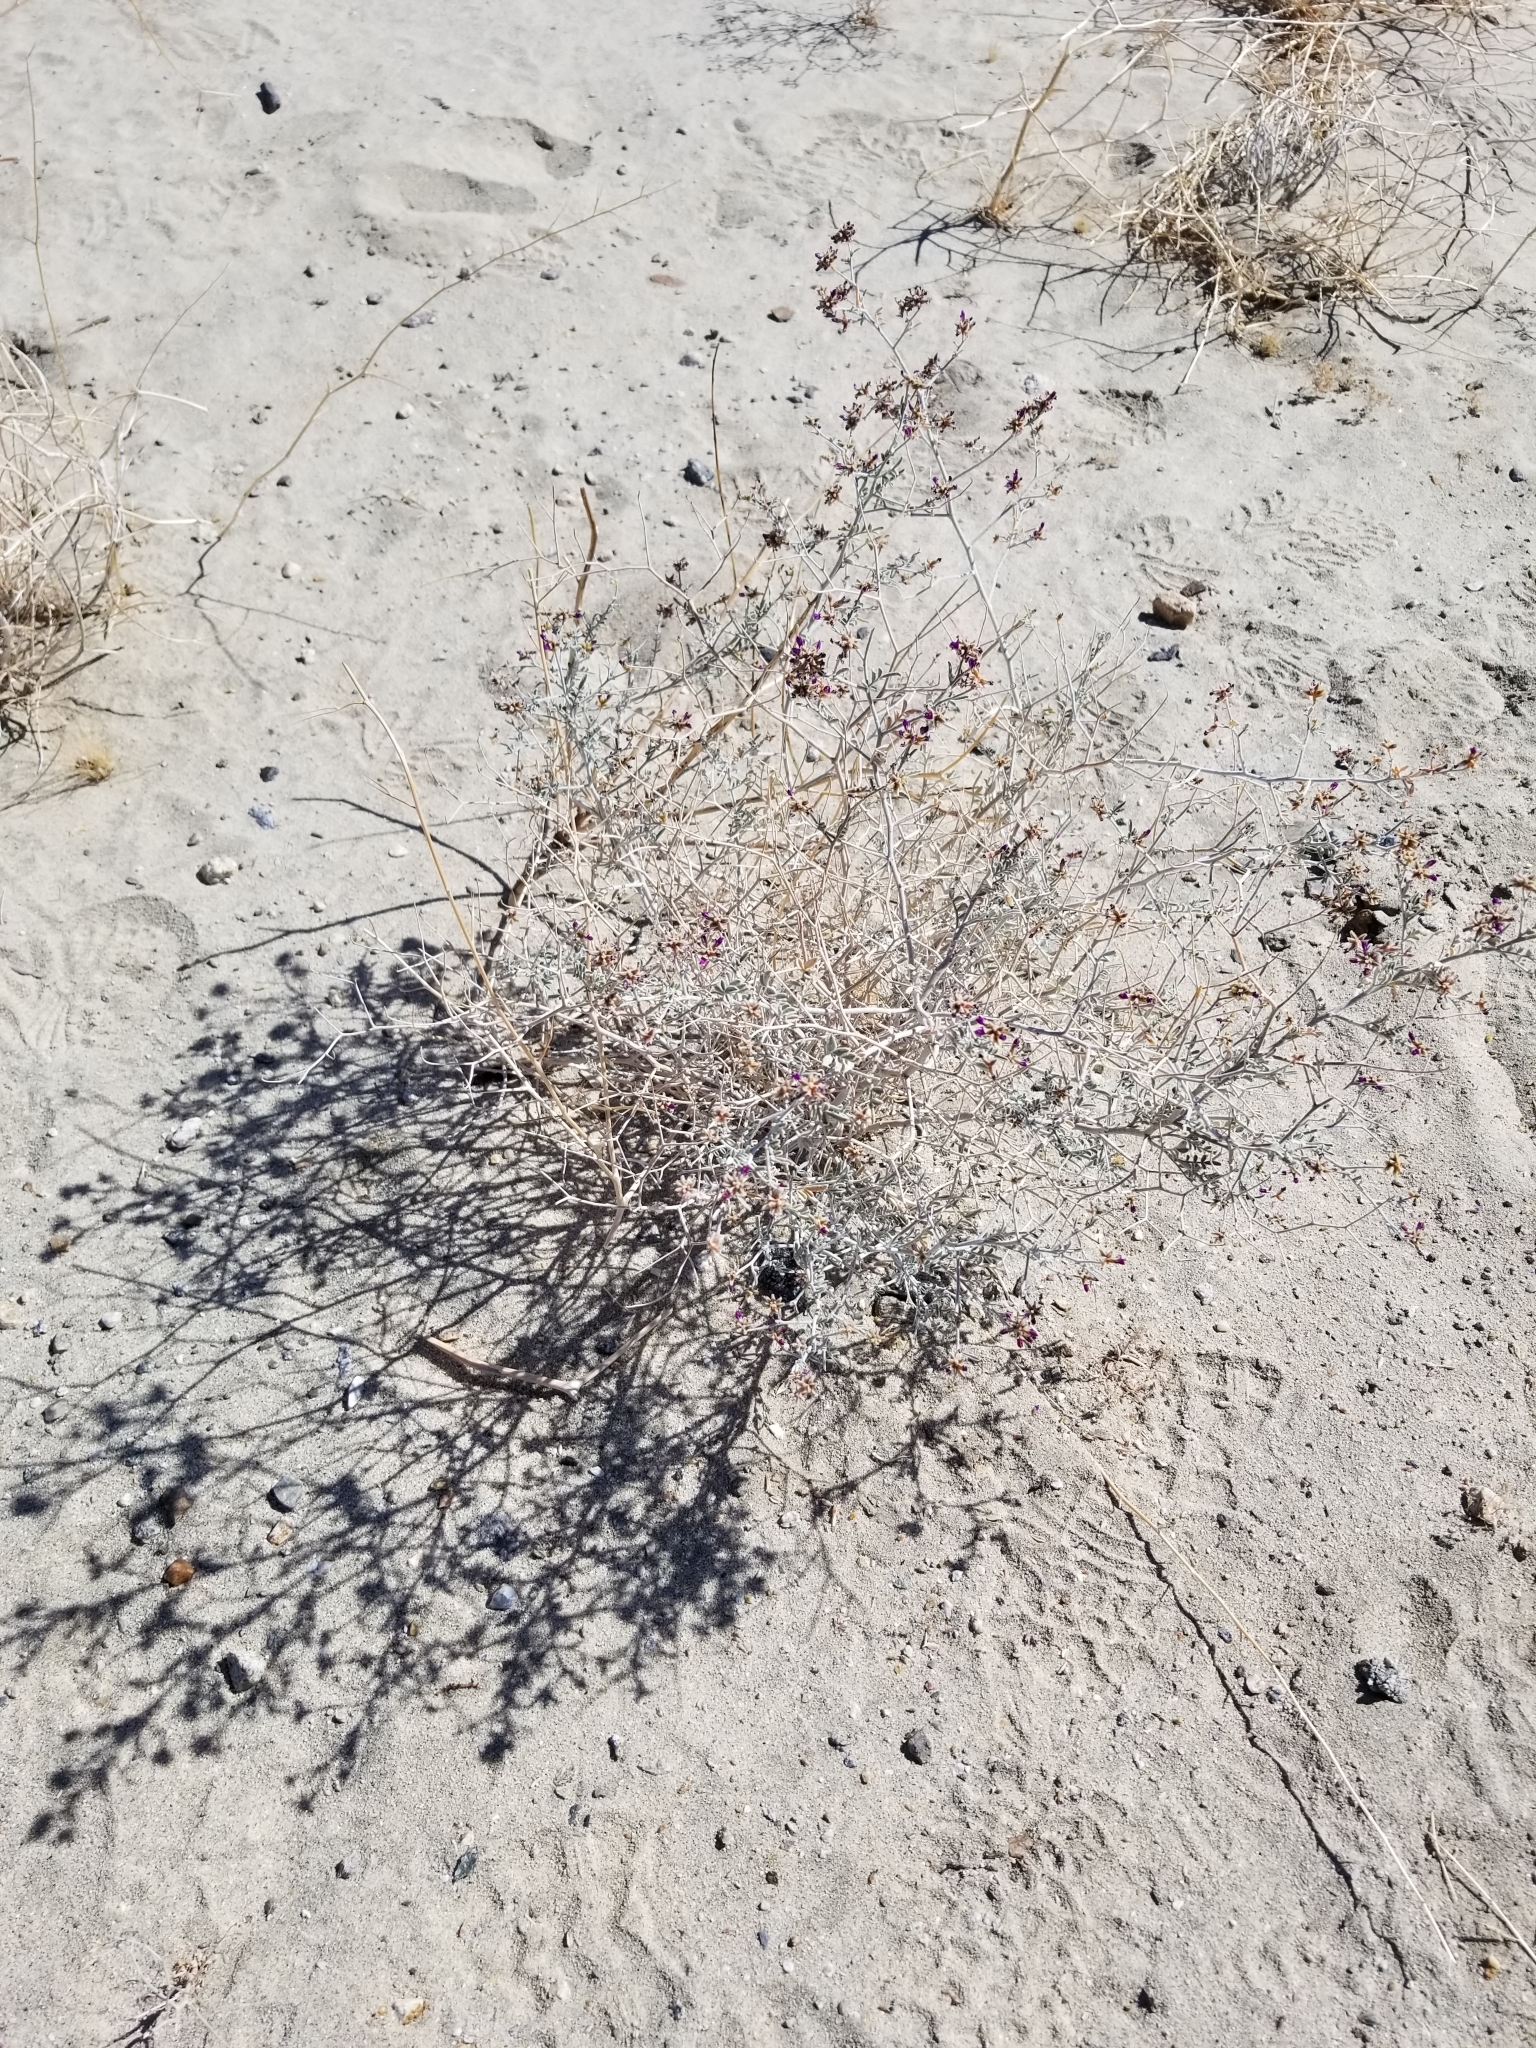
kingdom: Plantae
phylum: Tracheophyta
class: Magnoliopsida
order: Fabales
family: Fabaceae
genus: Psorothamnus
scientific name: Psorothamnus emoryi
